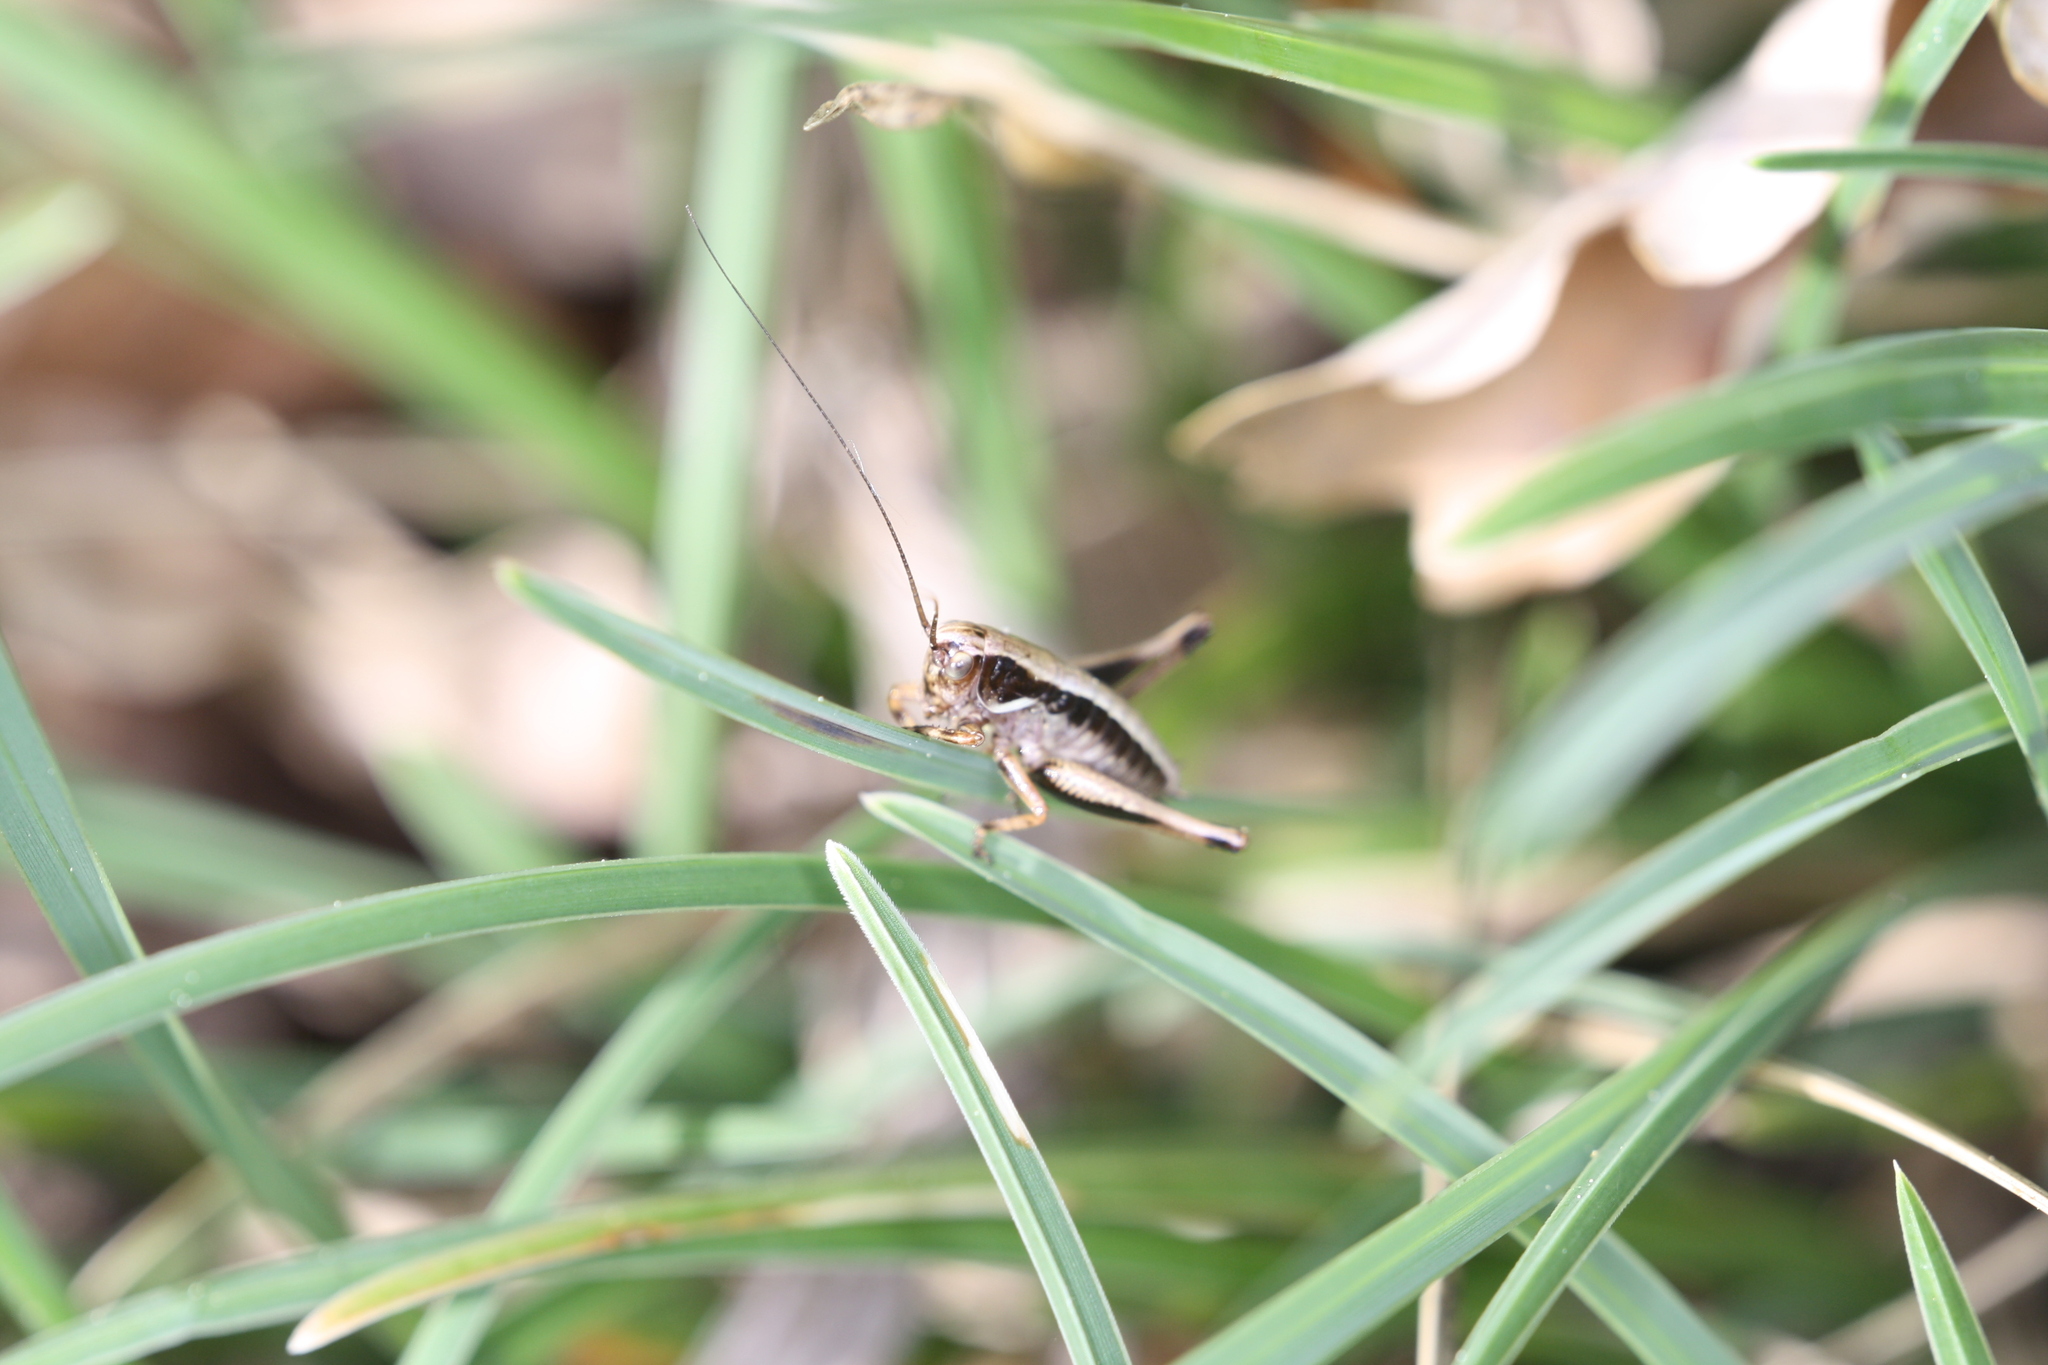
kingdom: Animalia
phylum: Arthropoda
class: Insecta
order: Orthoptera
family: Tettigoniidae
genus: Pholidoptera
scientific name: Pholidoptera aptera
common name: Alpine dark bush-cricket
